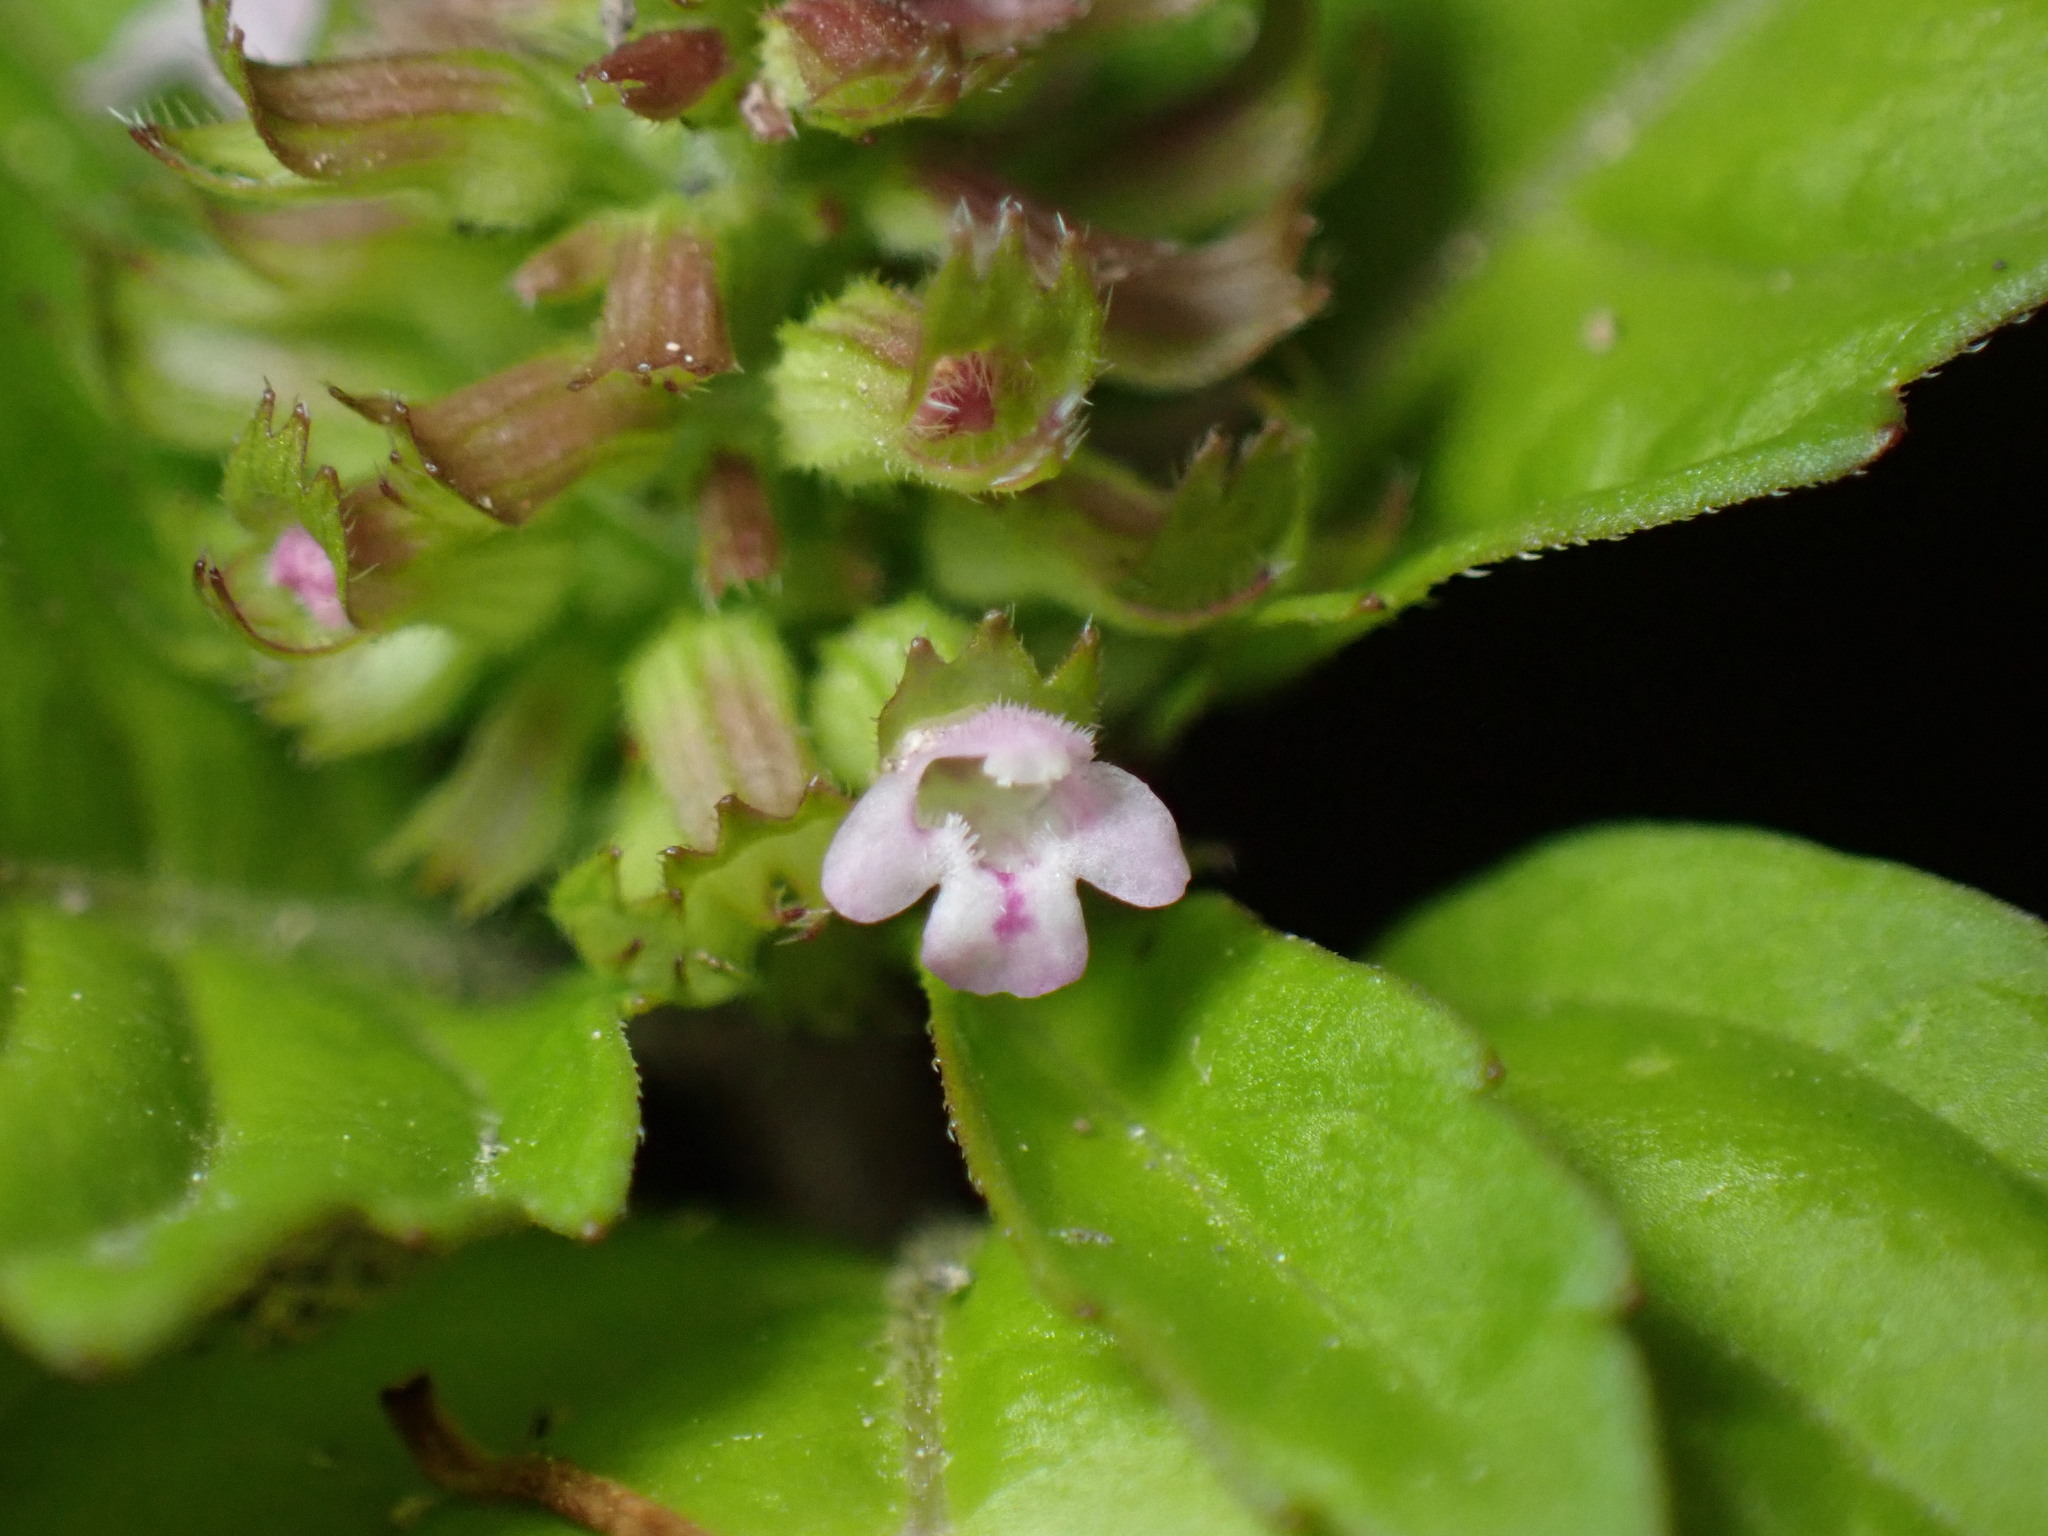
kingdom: Plantae
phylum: Tracheophyta
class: Magnoliopsida
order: Lamiales
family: Lamiaceae
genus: Clinopodium
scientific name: Clinopodium gracile
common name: Slender wild basil
